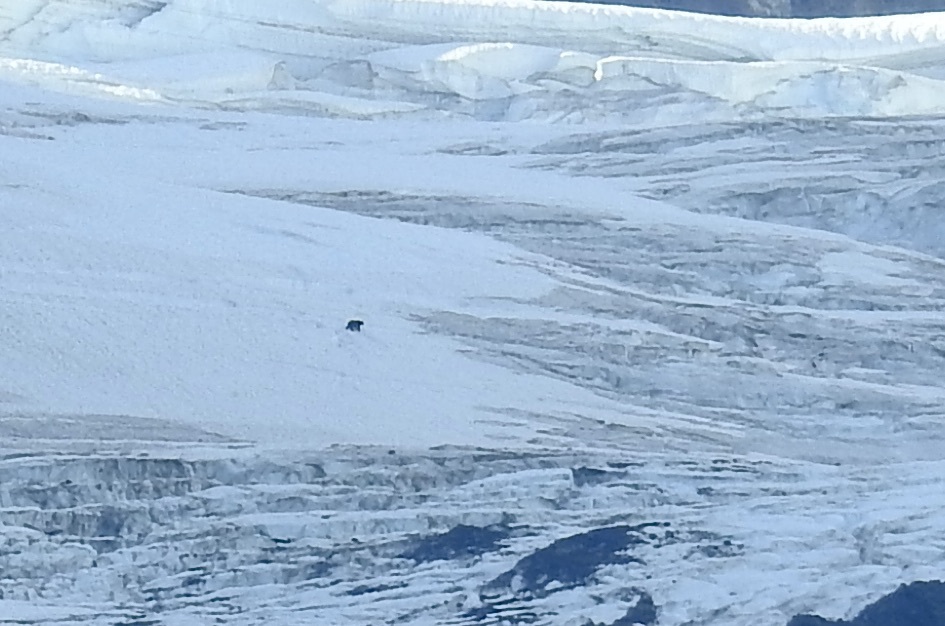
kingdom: Animalia
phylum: Chordata
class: Mammalia
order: Carnivora
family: Ursidae
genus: Ursus
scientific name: Ursus arctos
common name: Brown bear
